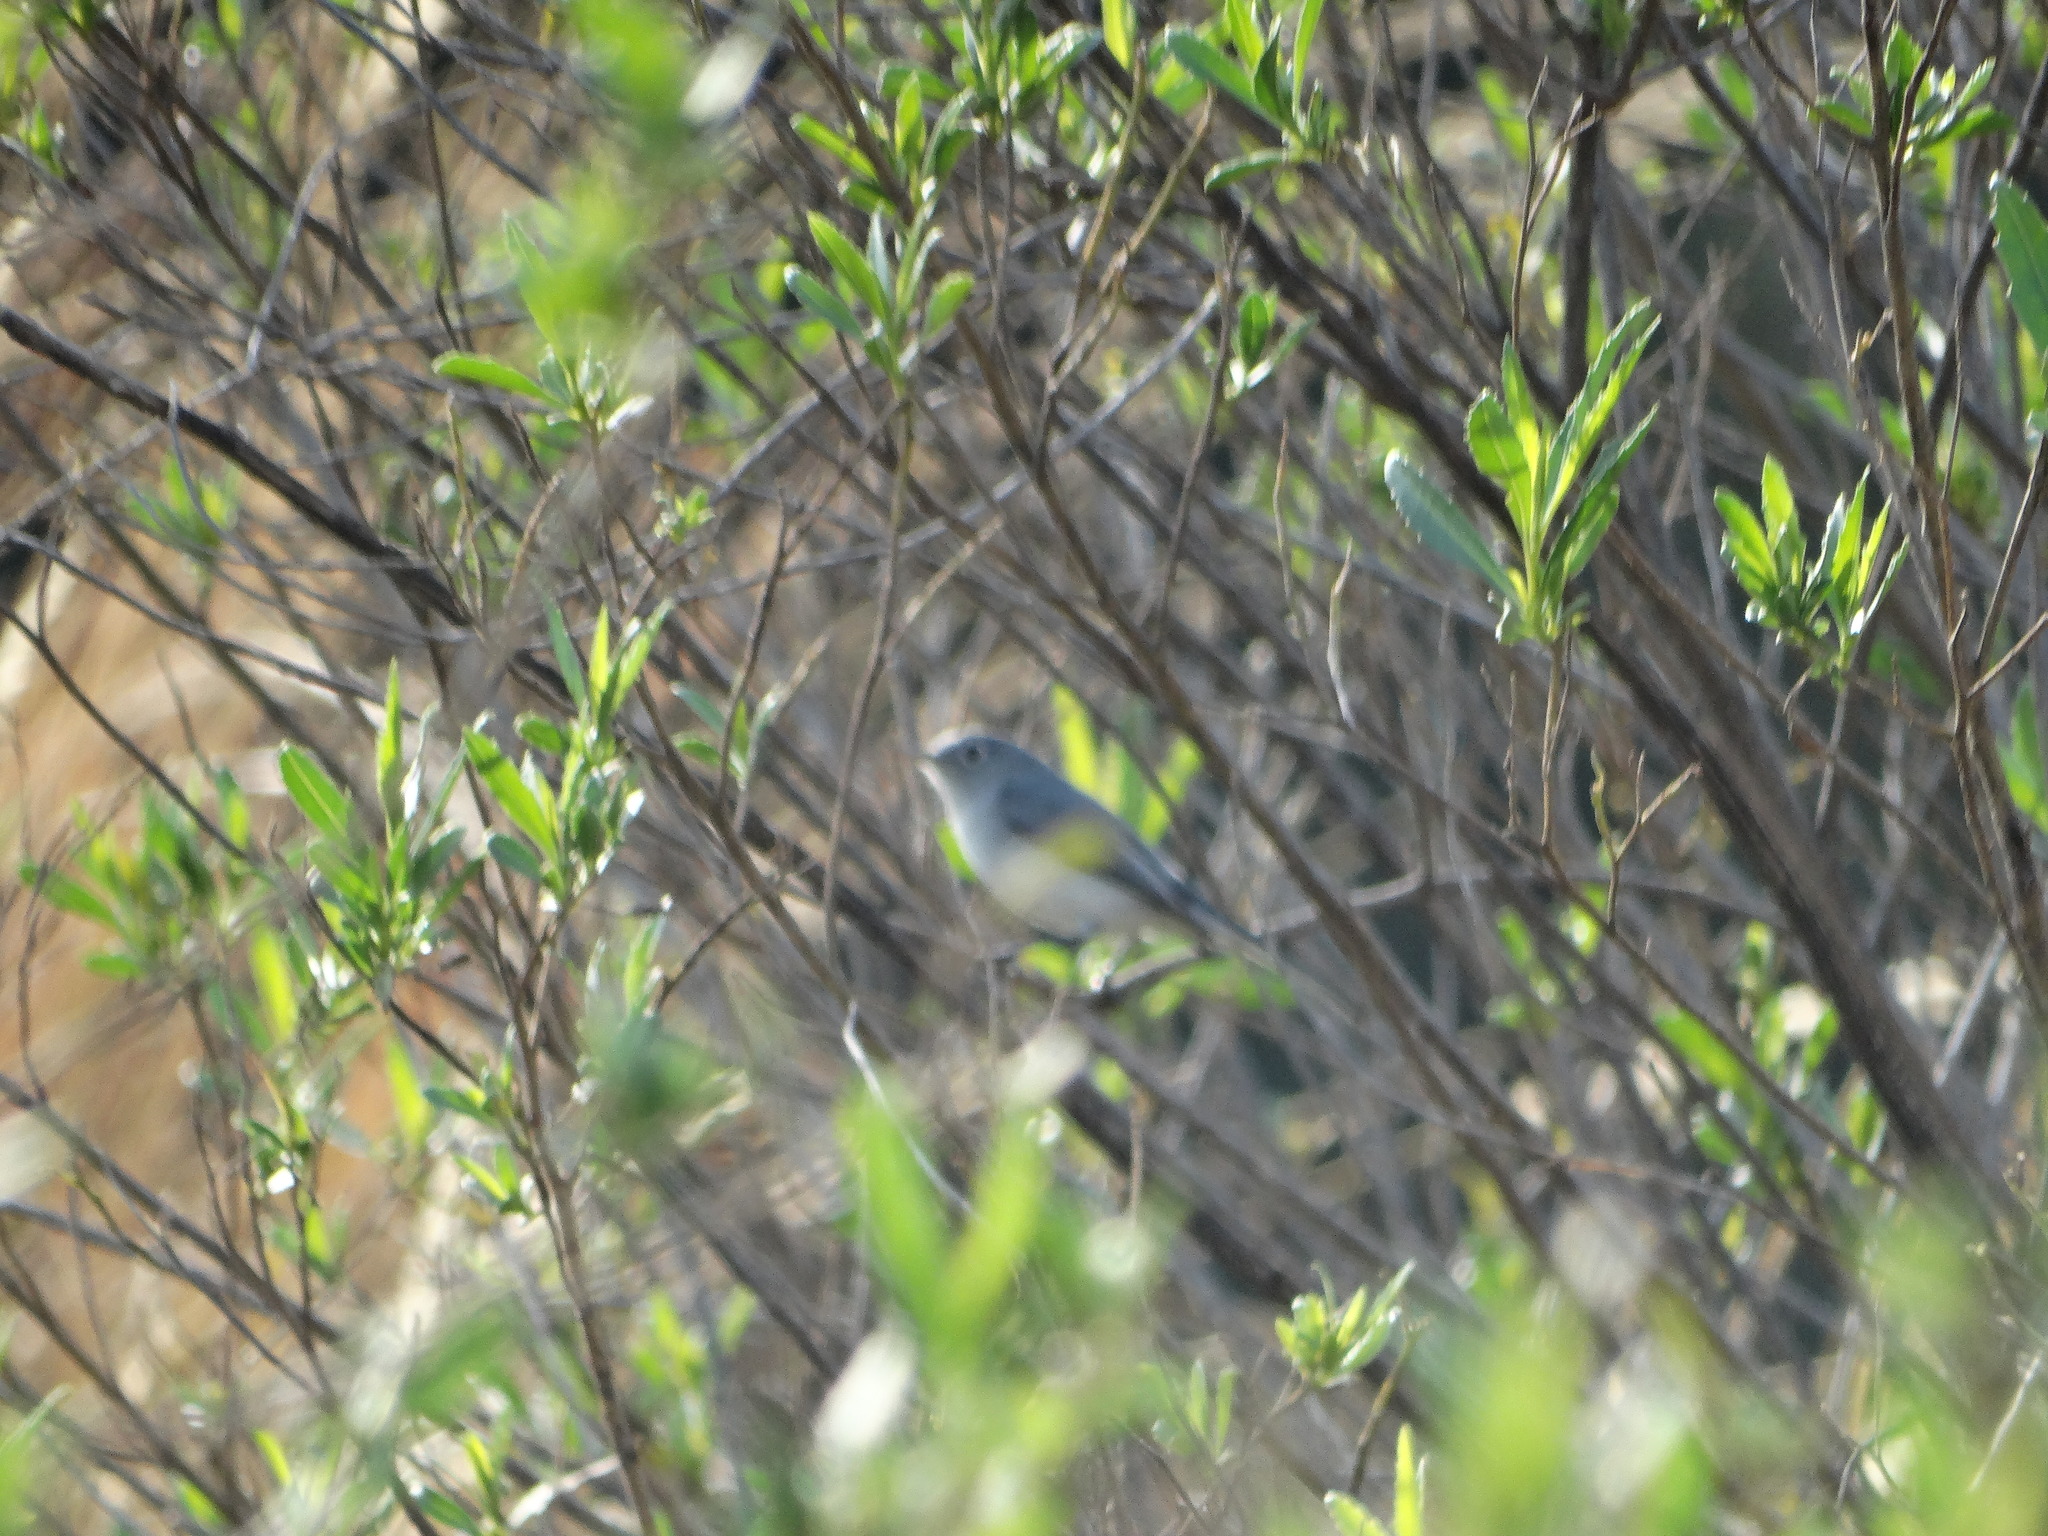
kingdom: Animalia
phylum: Chordata
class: Aves
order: Passeriformes
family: Polioptilidae
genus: Polioptila
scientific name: Polioptila caerulea
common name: Blue-gray gnatcatcher
